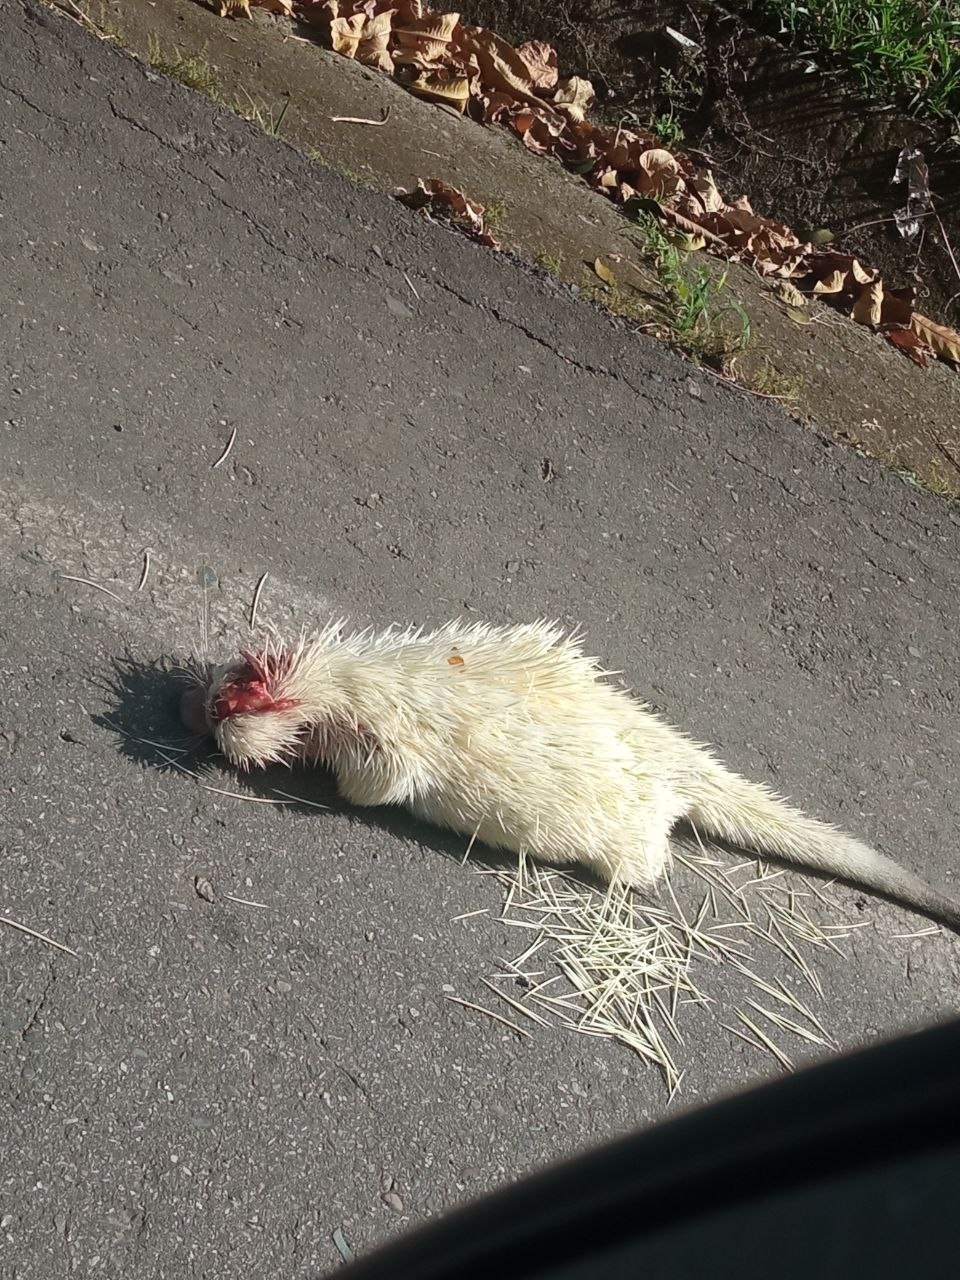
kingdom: Animalia
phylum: Chordata
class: Mammalia
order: Rodentia
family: Erethizontidae
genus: Coendou
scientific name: Coendou longicaudatus
